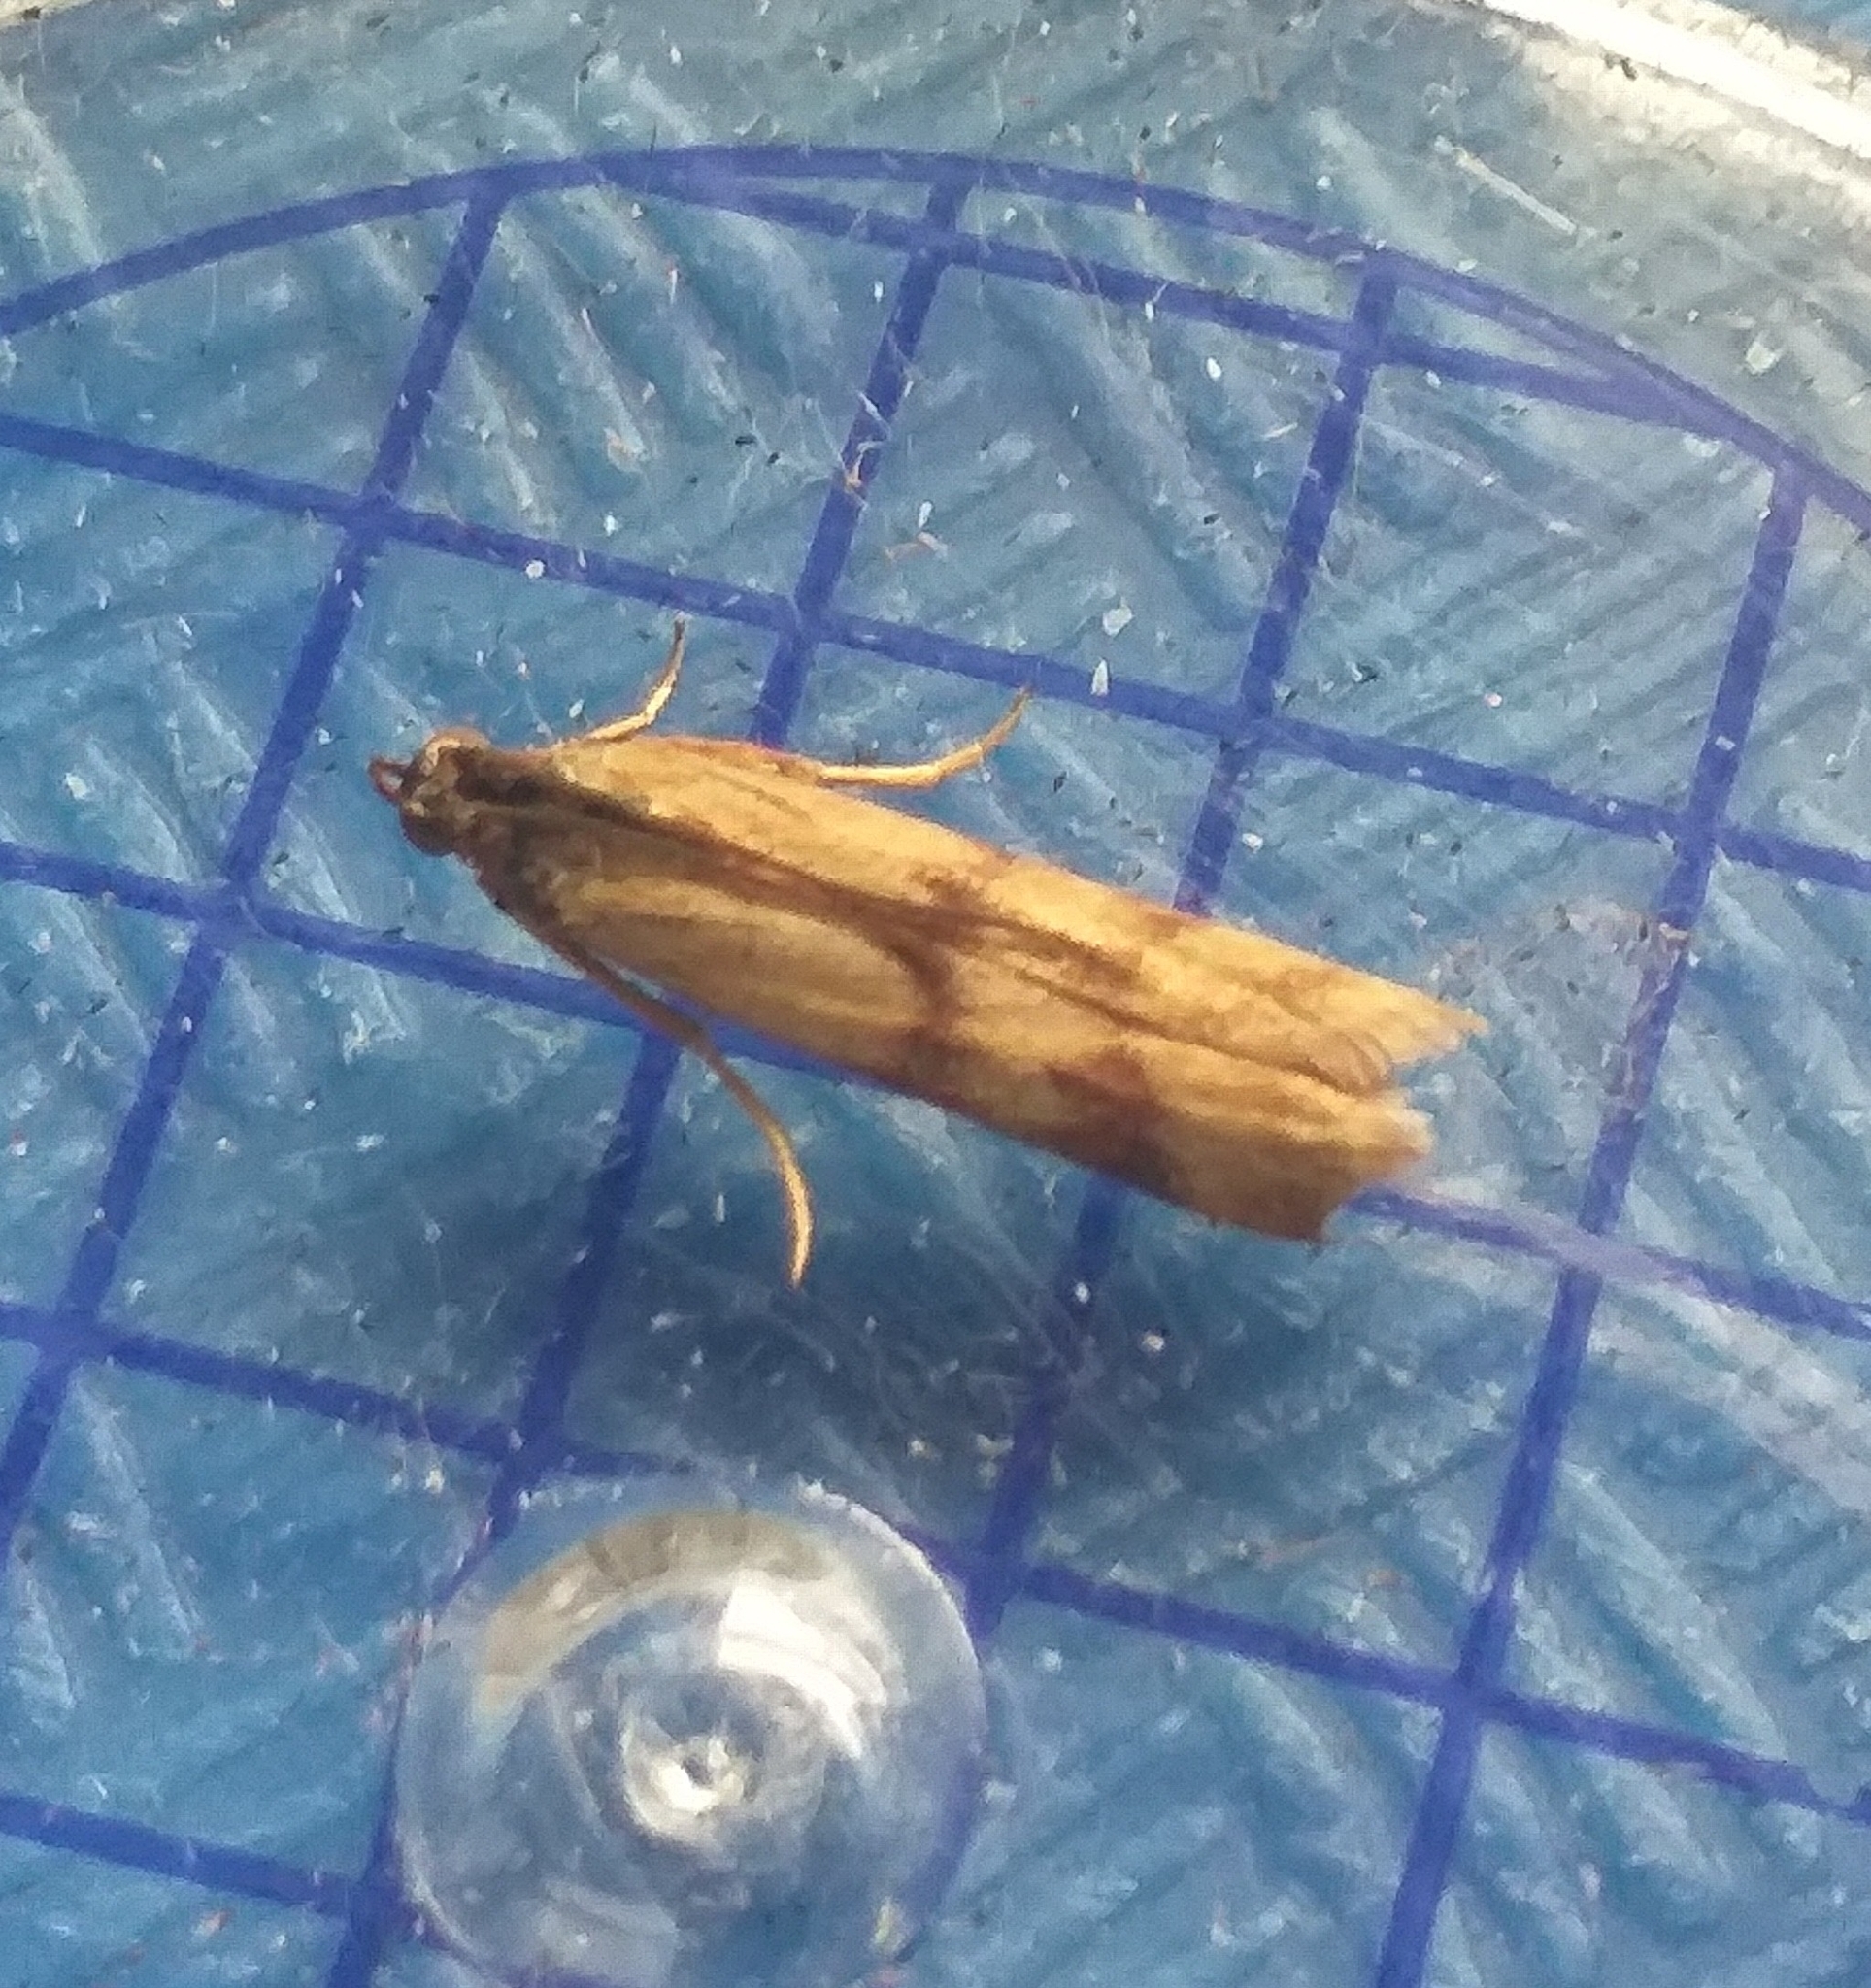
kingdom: Animalia
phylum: Arthropoda
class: Insecta
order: Lepidoptera
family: Pyralidae
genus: Homoeosoma
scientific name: Homoeosoma sinuella
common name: Twin-barred knot-horn
